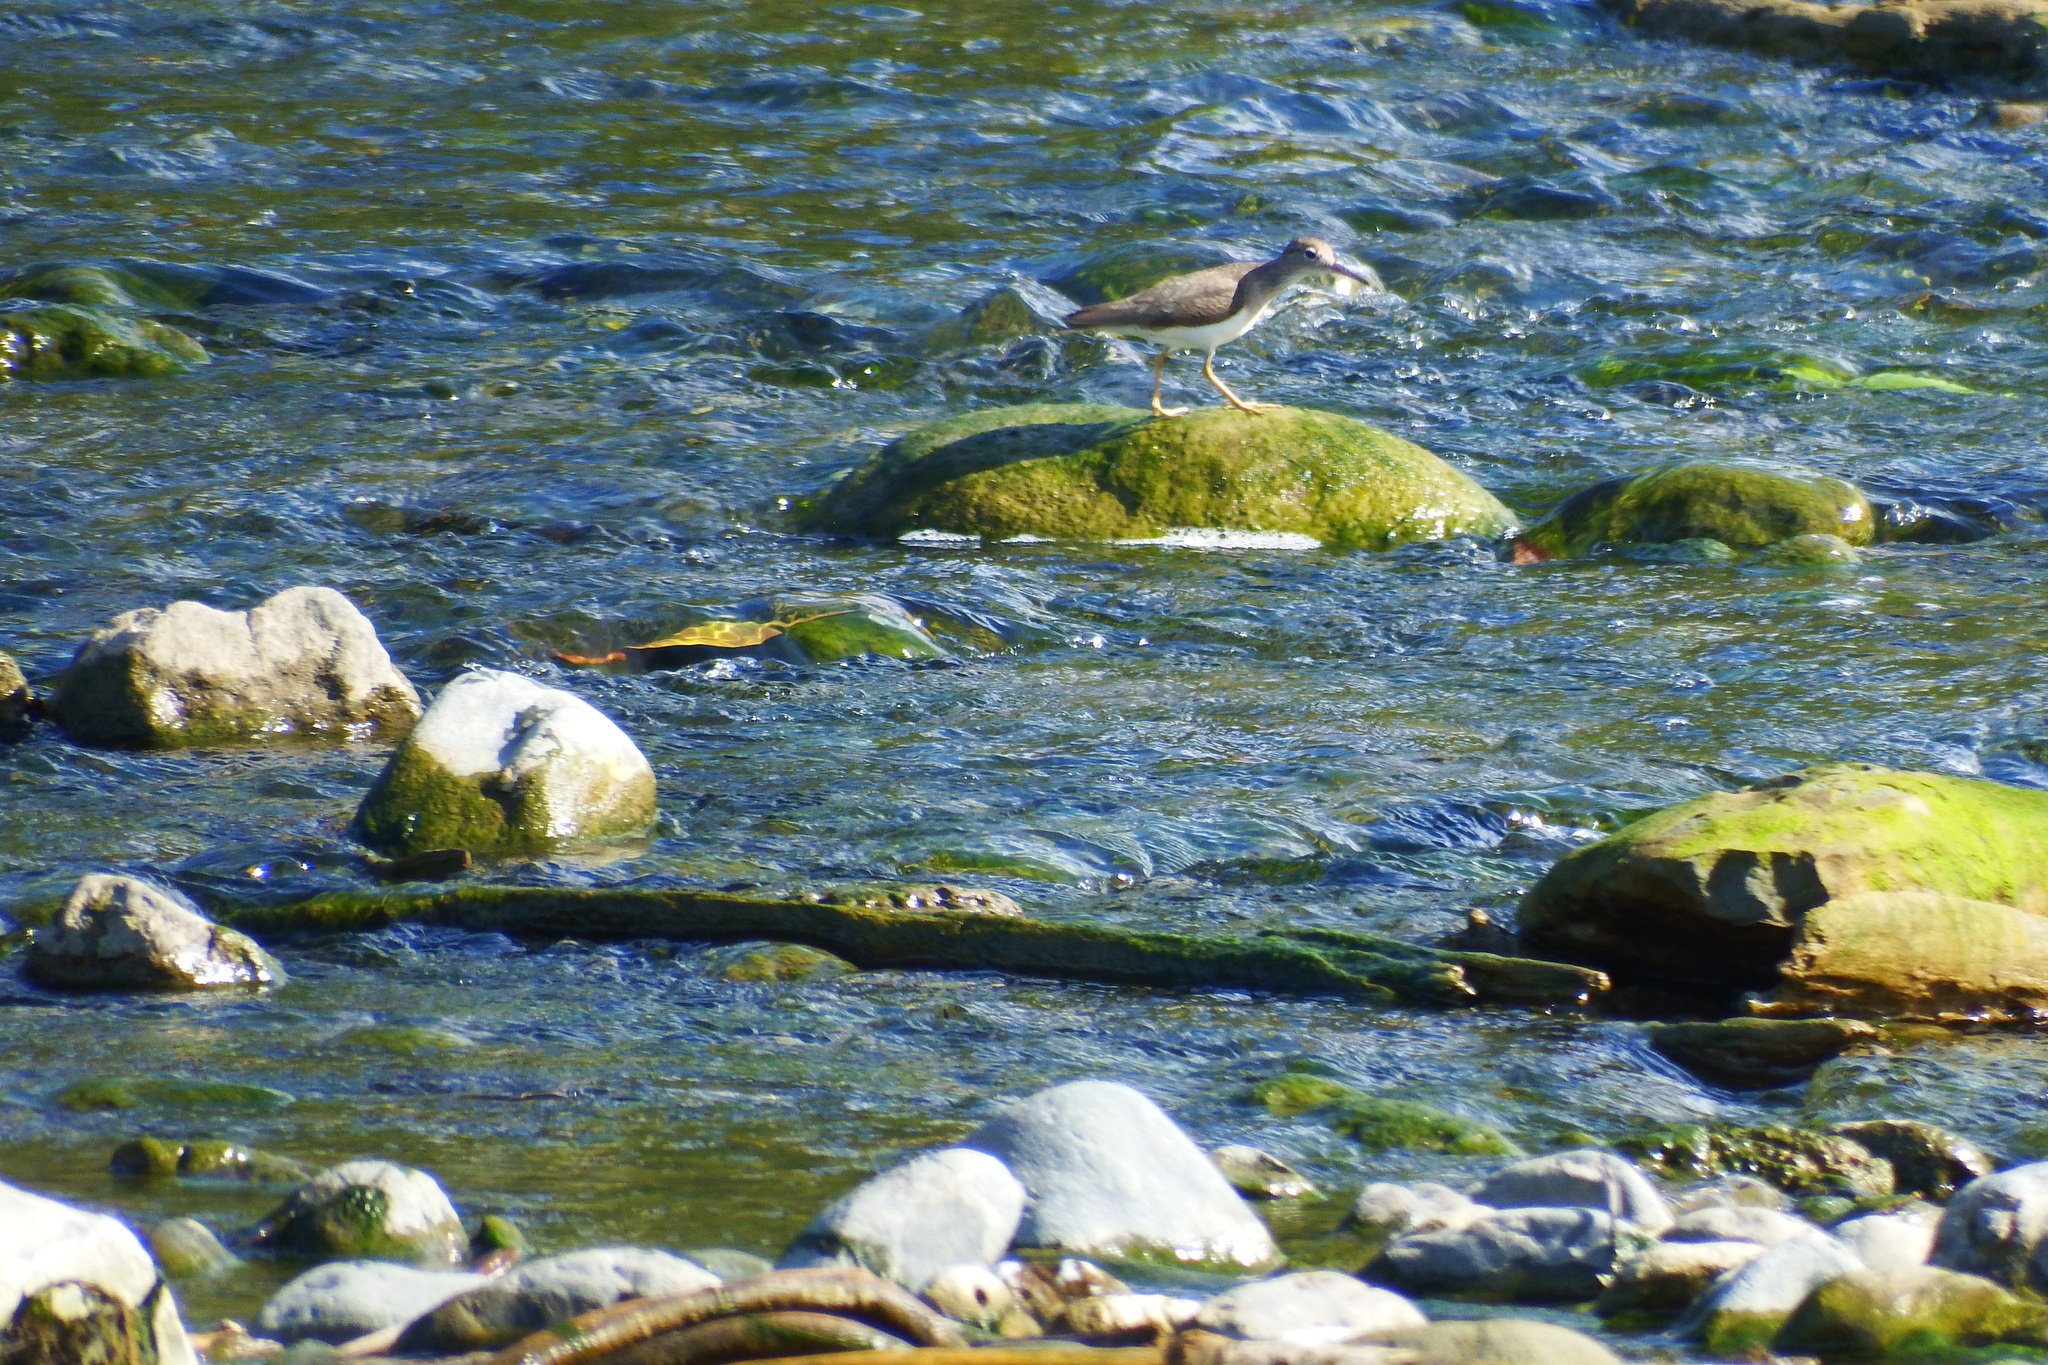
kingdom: Animalia
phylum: Chordata
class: Aves
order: Charadriiformes
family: Scolopacidae
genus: Actitis
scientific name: Actitis macularius
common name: Spotted sandpiper
